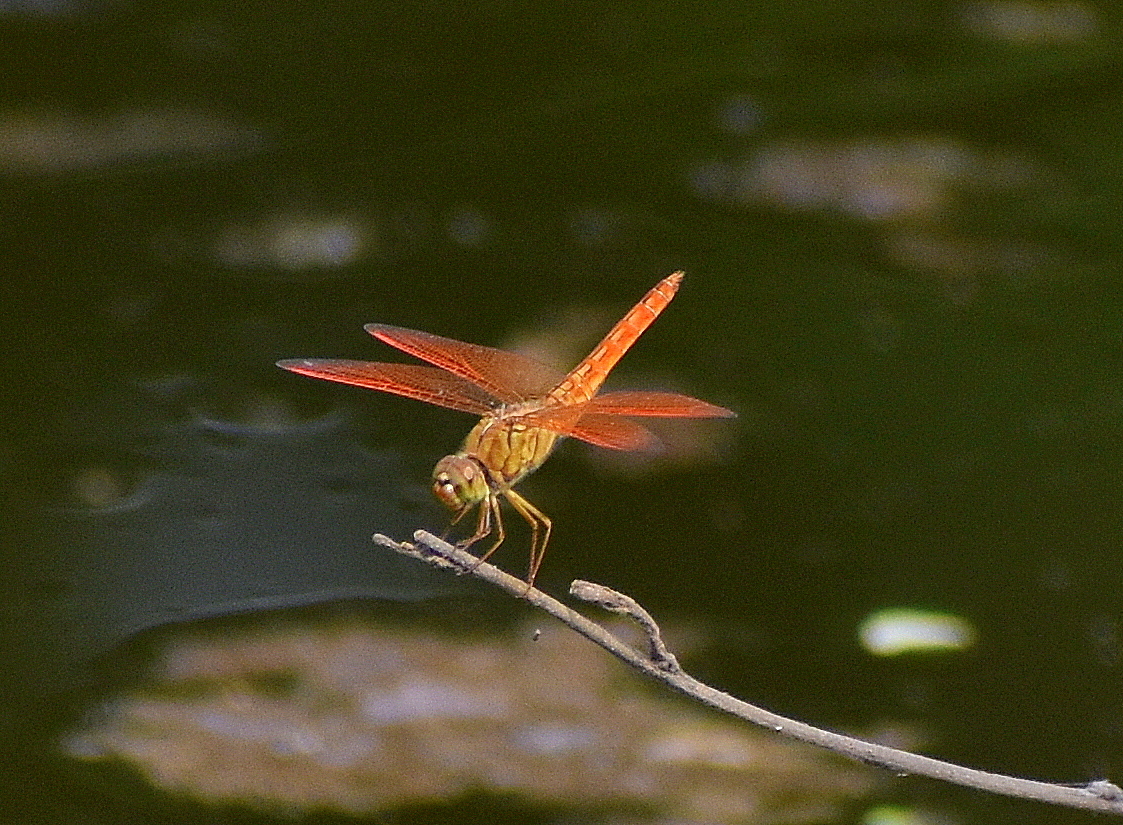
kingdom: Animalia
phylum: Arthropoda
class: Insecta
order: Odonata
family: Libellulidae
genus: Brachythemis
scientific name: Brachythemis contaminata
